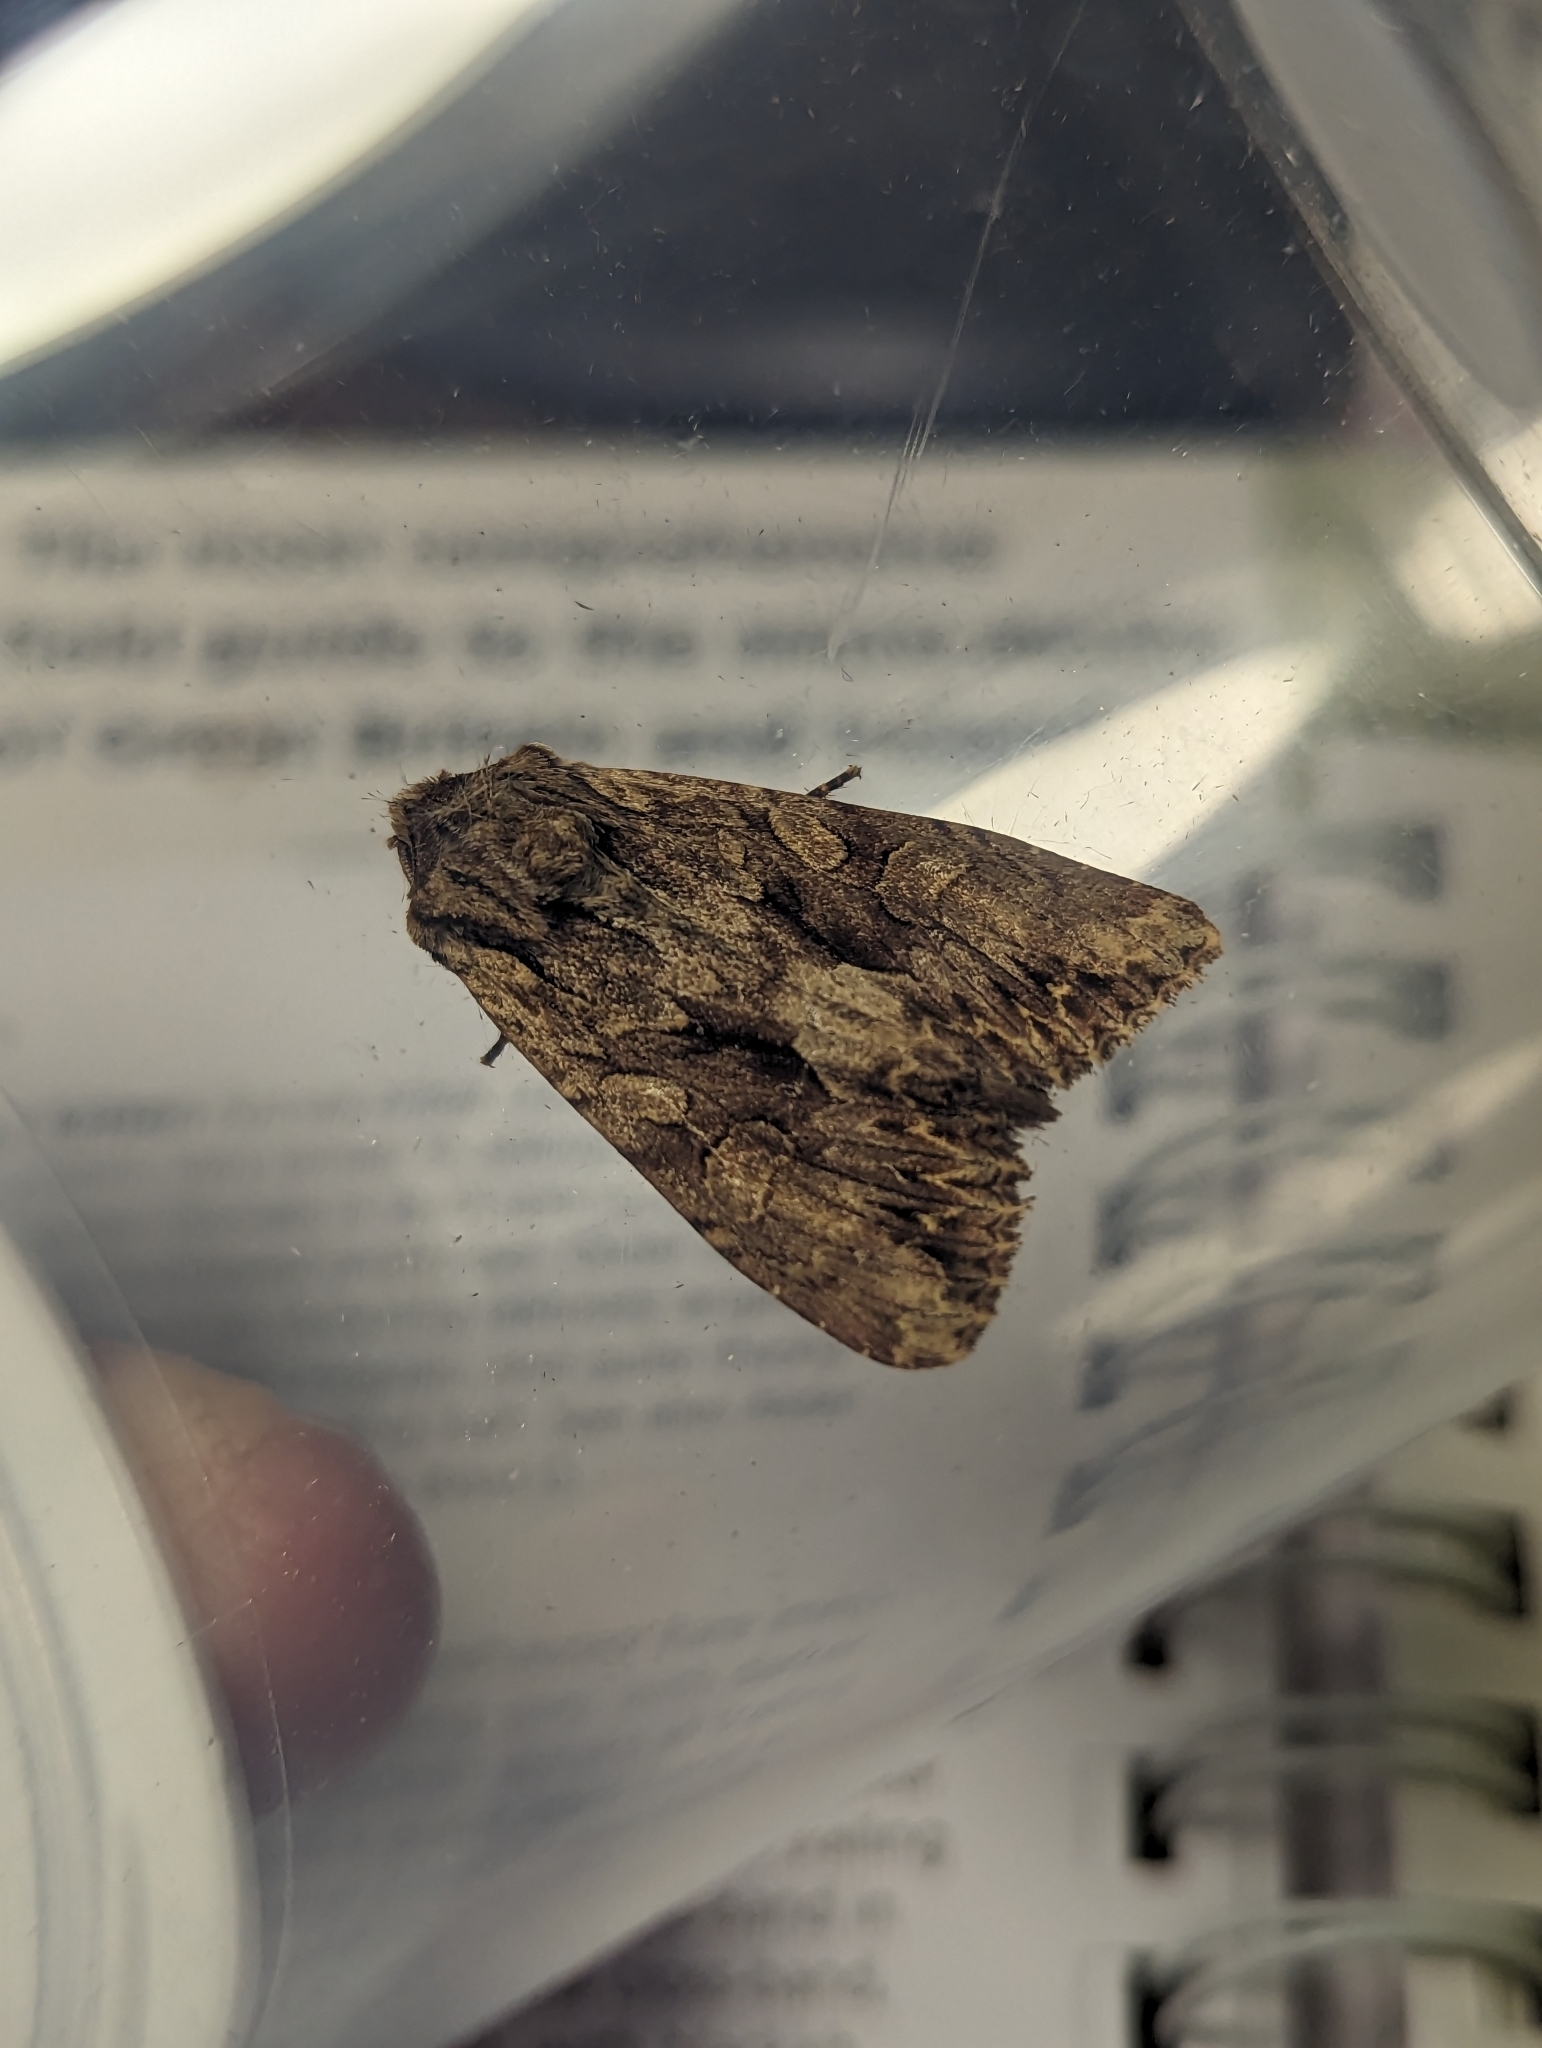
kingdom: Animalia
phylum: Arthropoda
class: Insecta
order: Lepidoptera
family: Noctuidae
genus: Apamea
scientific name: Apamea monoglypha
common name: Dark arches
